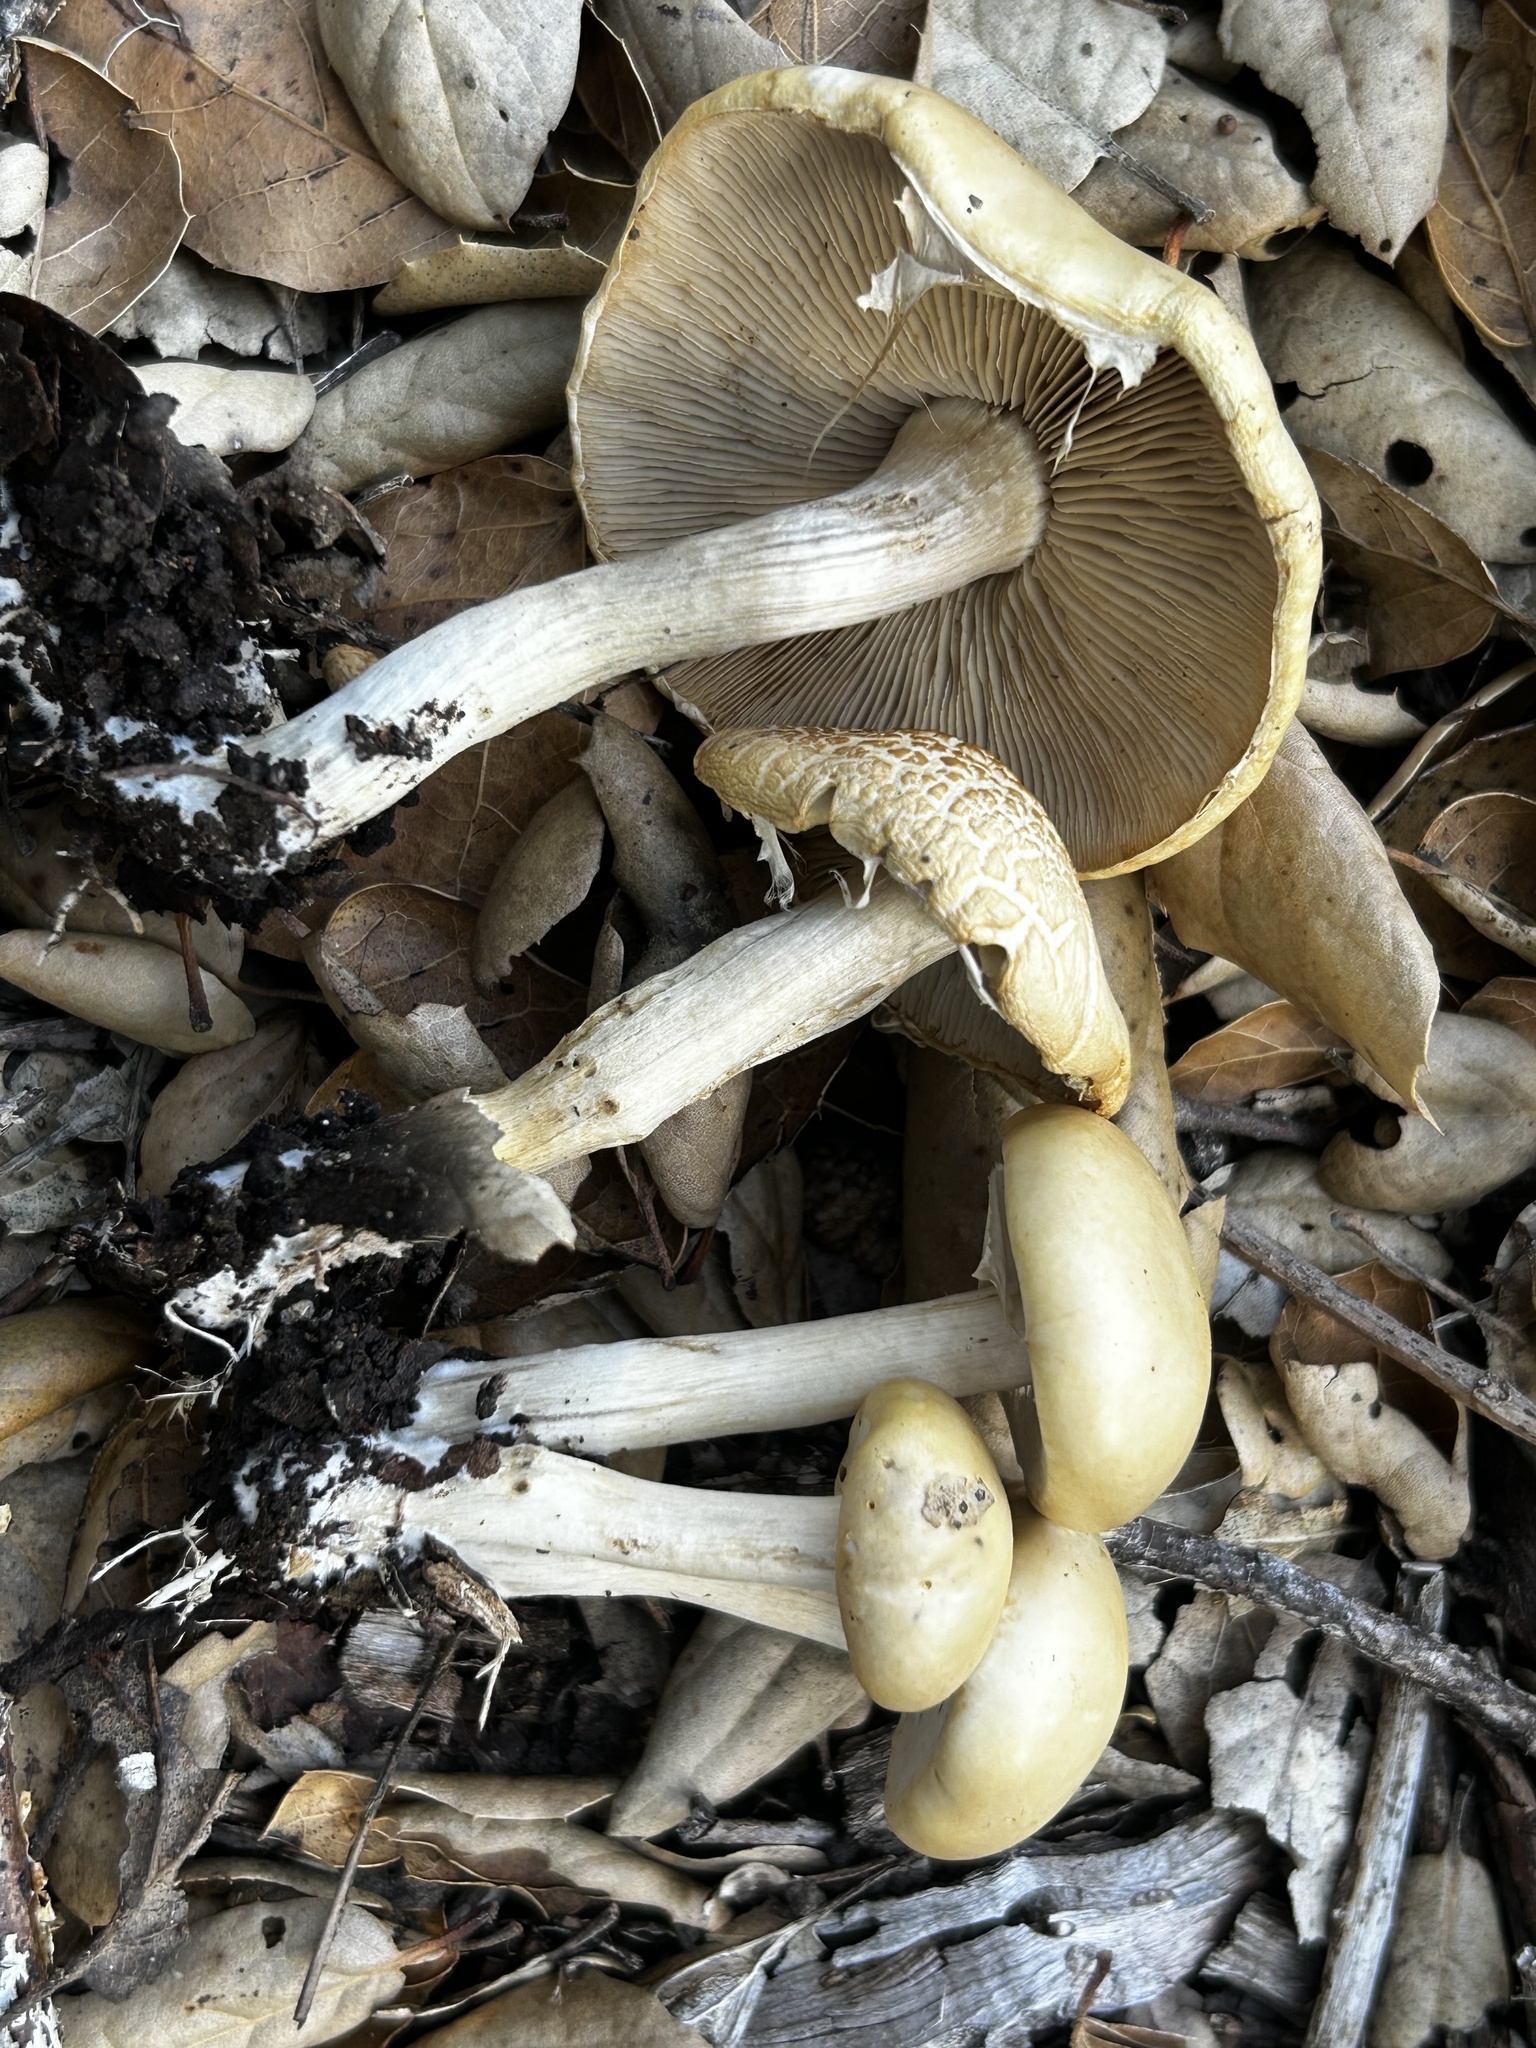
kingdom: Fungi
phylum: Basidiomycota
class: Agaricomycetes
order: Agaricales
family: Strophariaceae
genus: Agrocybe
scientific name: Agrocybe praecox
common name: Spring fieldcap
